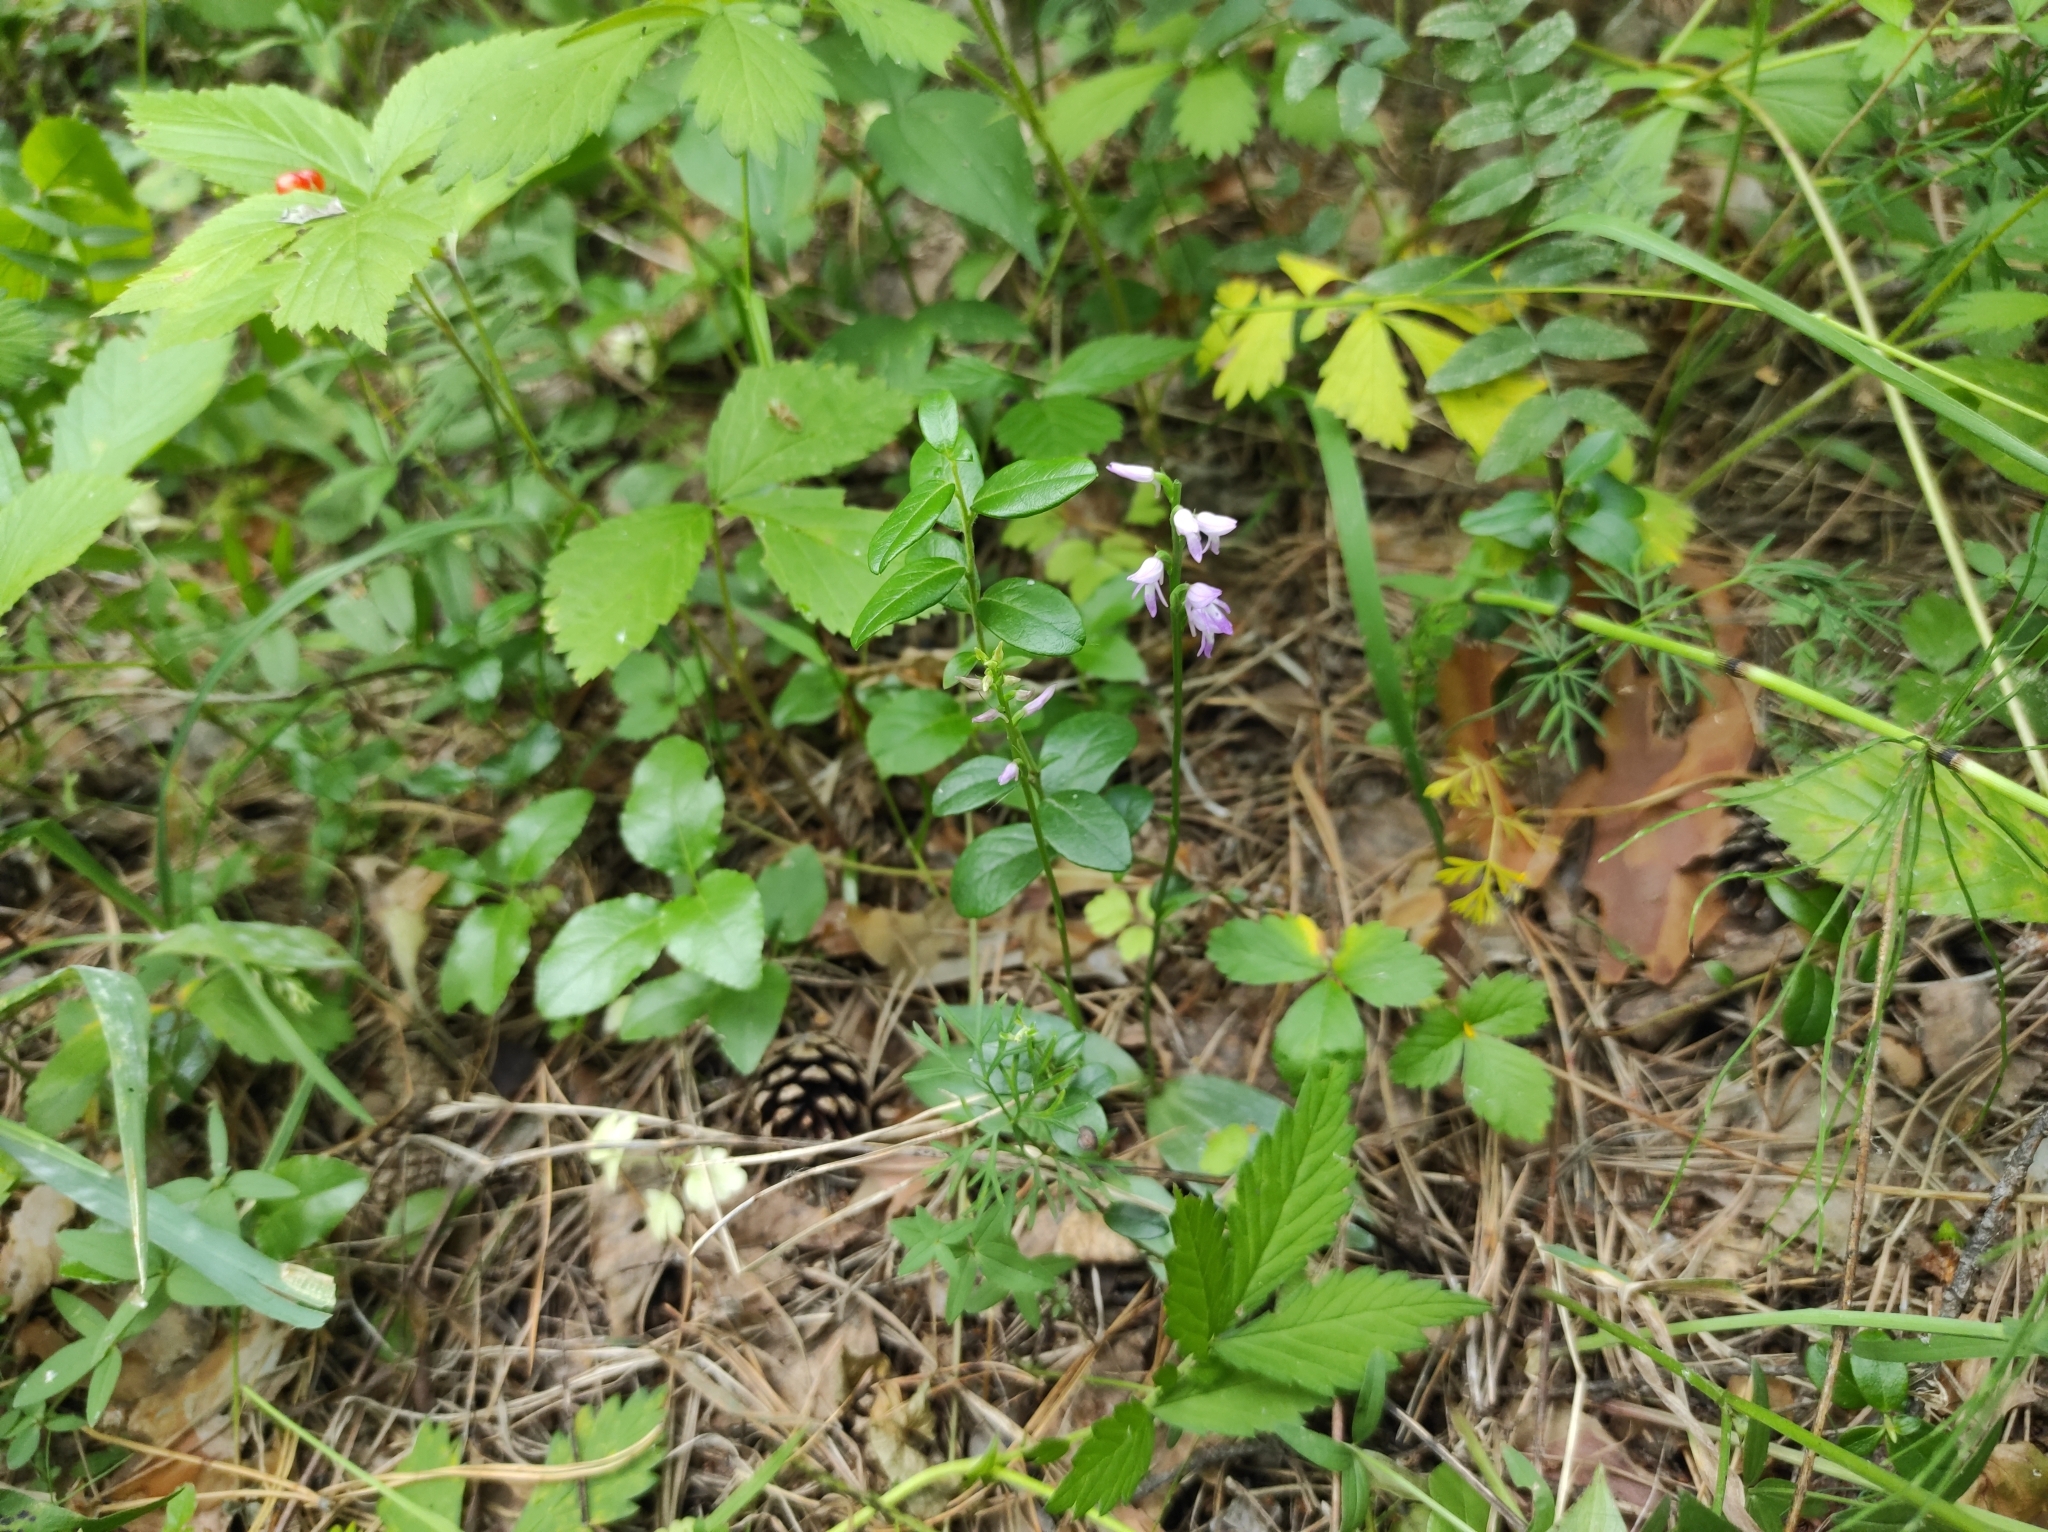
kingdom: Plantae
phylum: Tracheophyta
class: Liliopsida
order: Asparagales
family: Orchidaceae
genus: Hemipilia
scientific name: Hemipilia cucullata
